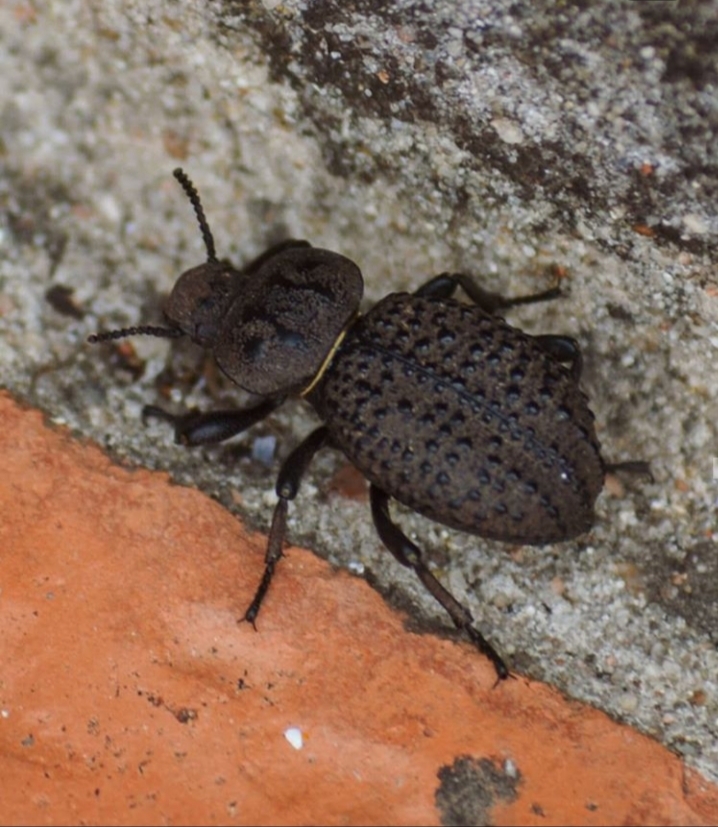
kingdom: Animalia
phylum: Arthropoda
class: Insecta
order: Coleoptera
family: Tenebrionidae
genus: Scotobius
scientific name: Scotobius pilularius
